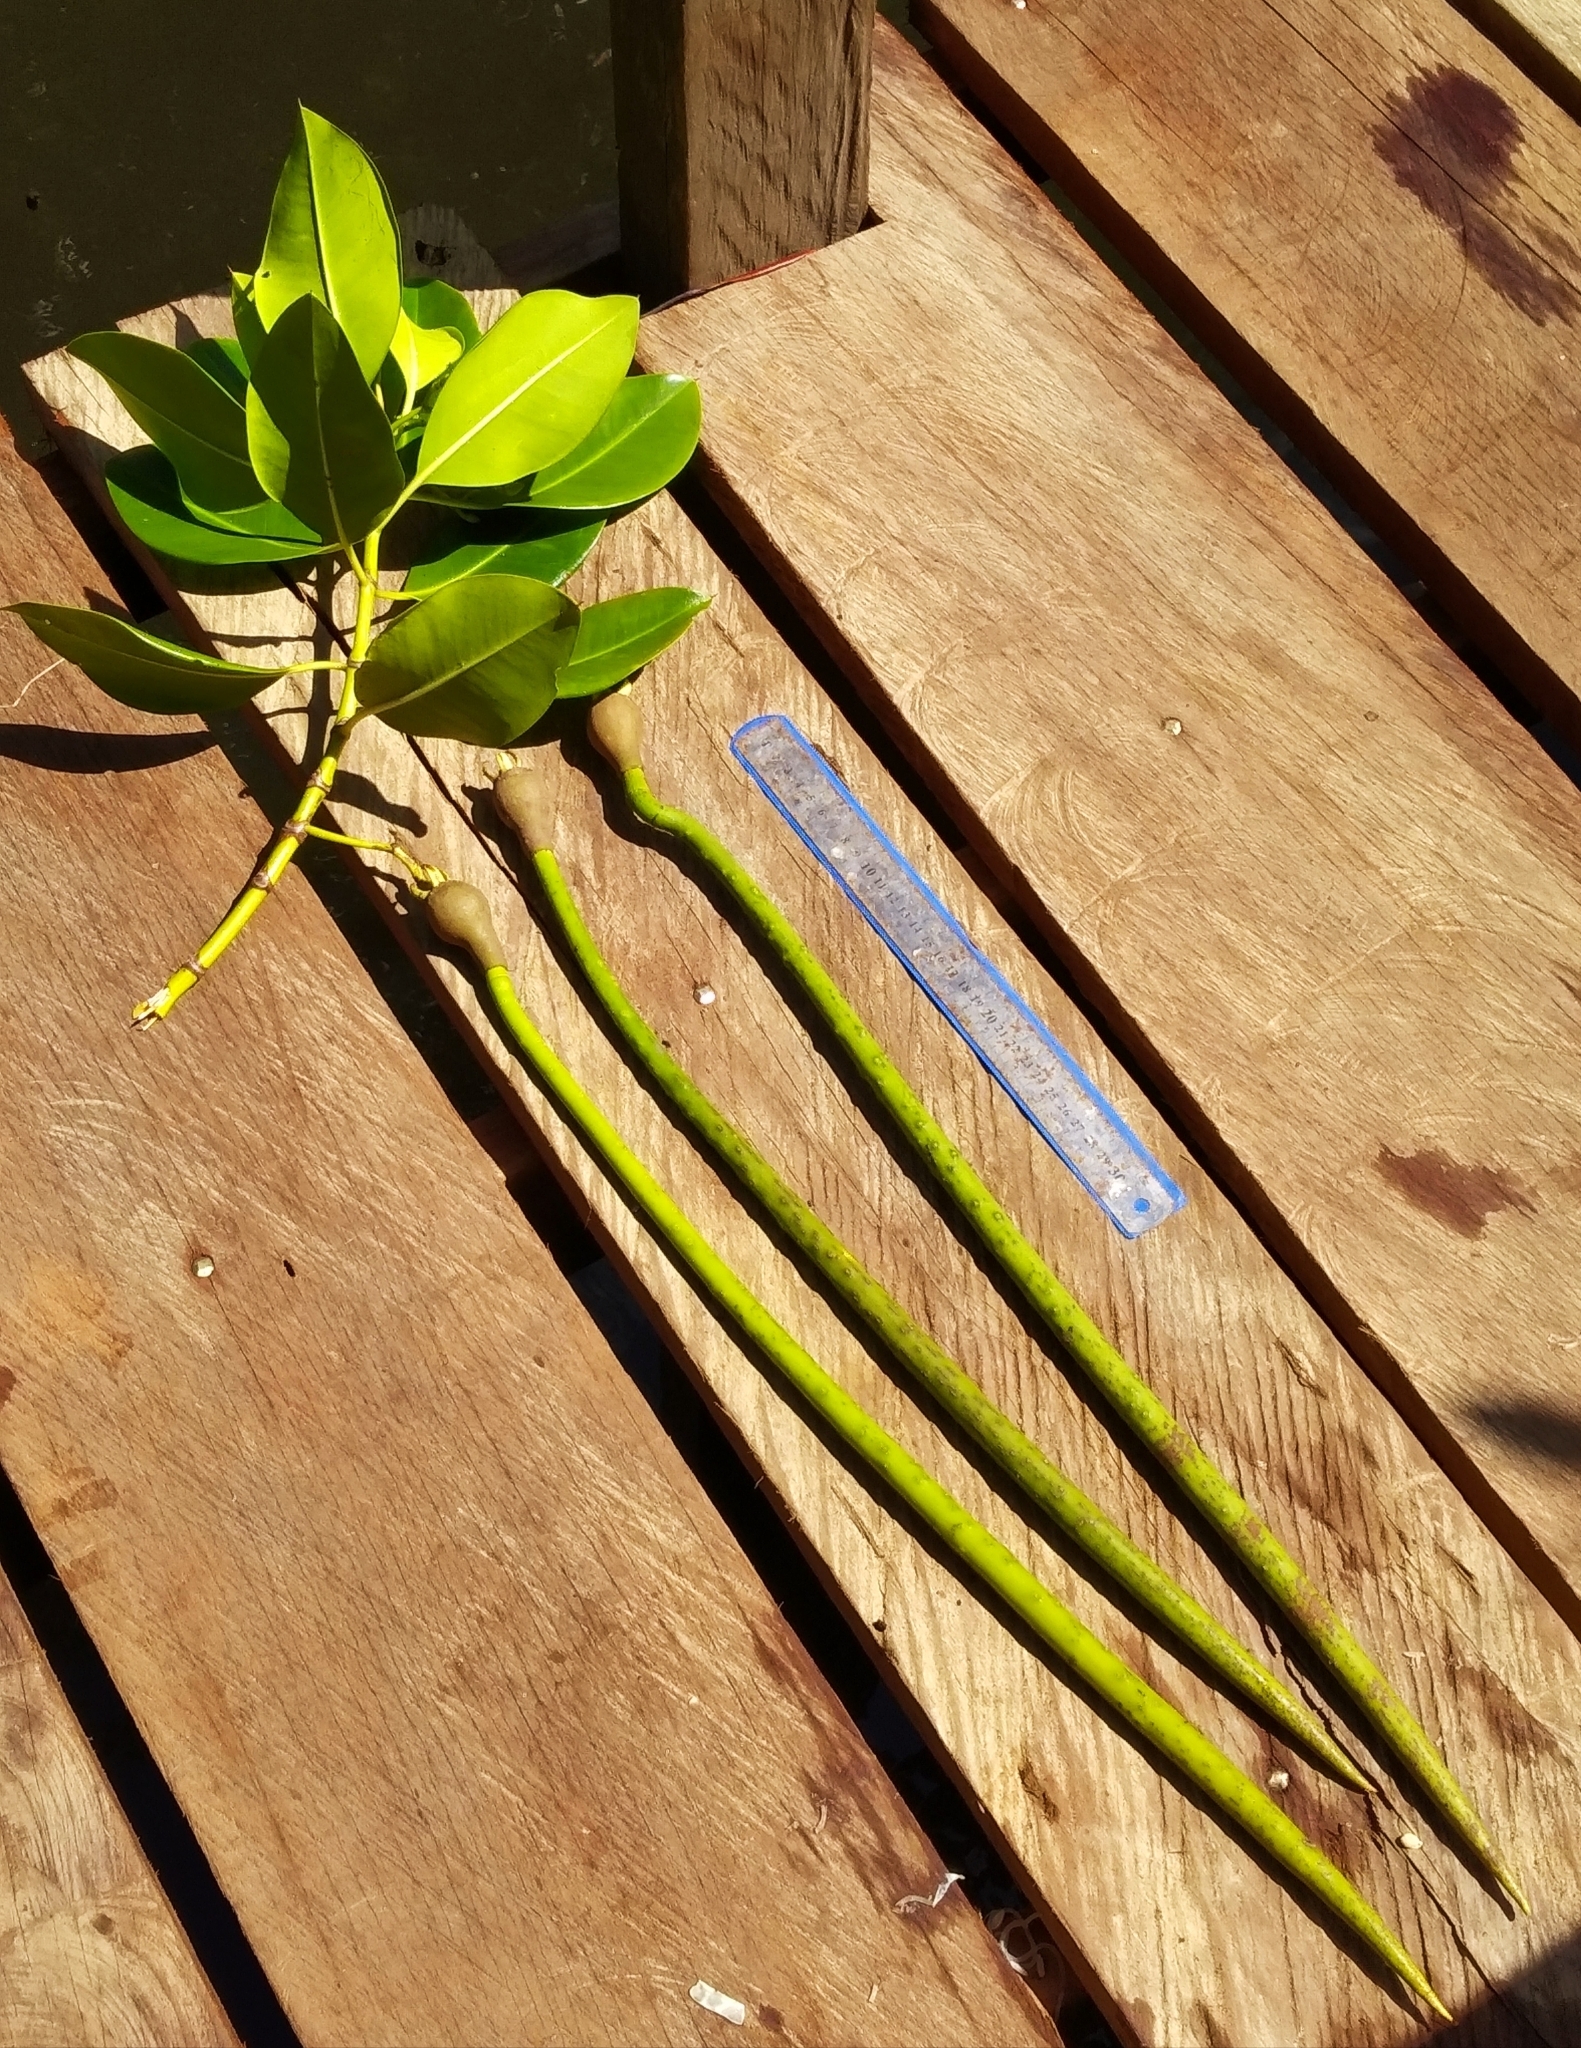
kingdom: Plantae
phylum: Tracheophyta
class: Magnoliopsida
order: Malpighiales
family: Rhizophoraceae
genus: Rhizophora
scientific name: Rhizophora mucronata
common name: Loop-root mangrove
